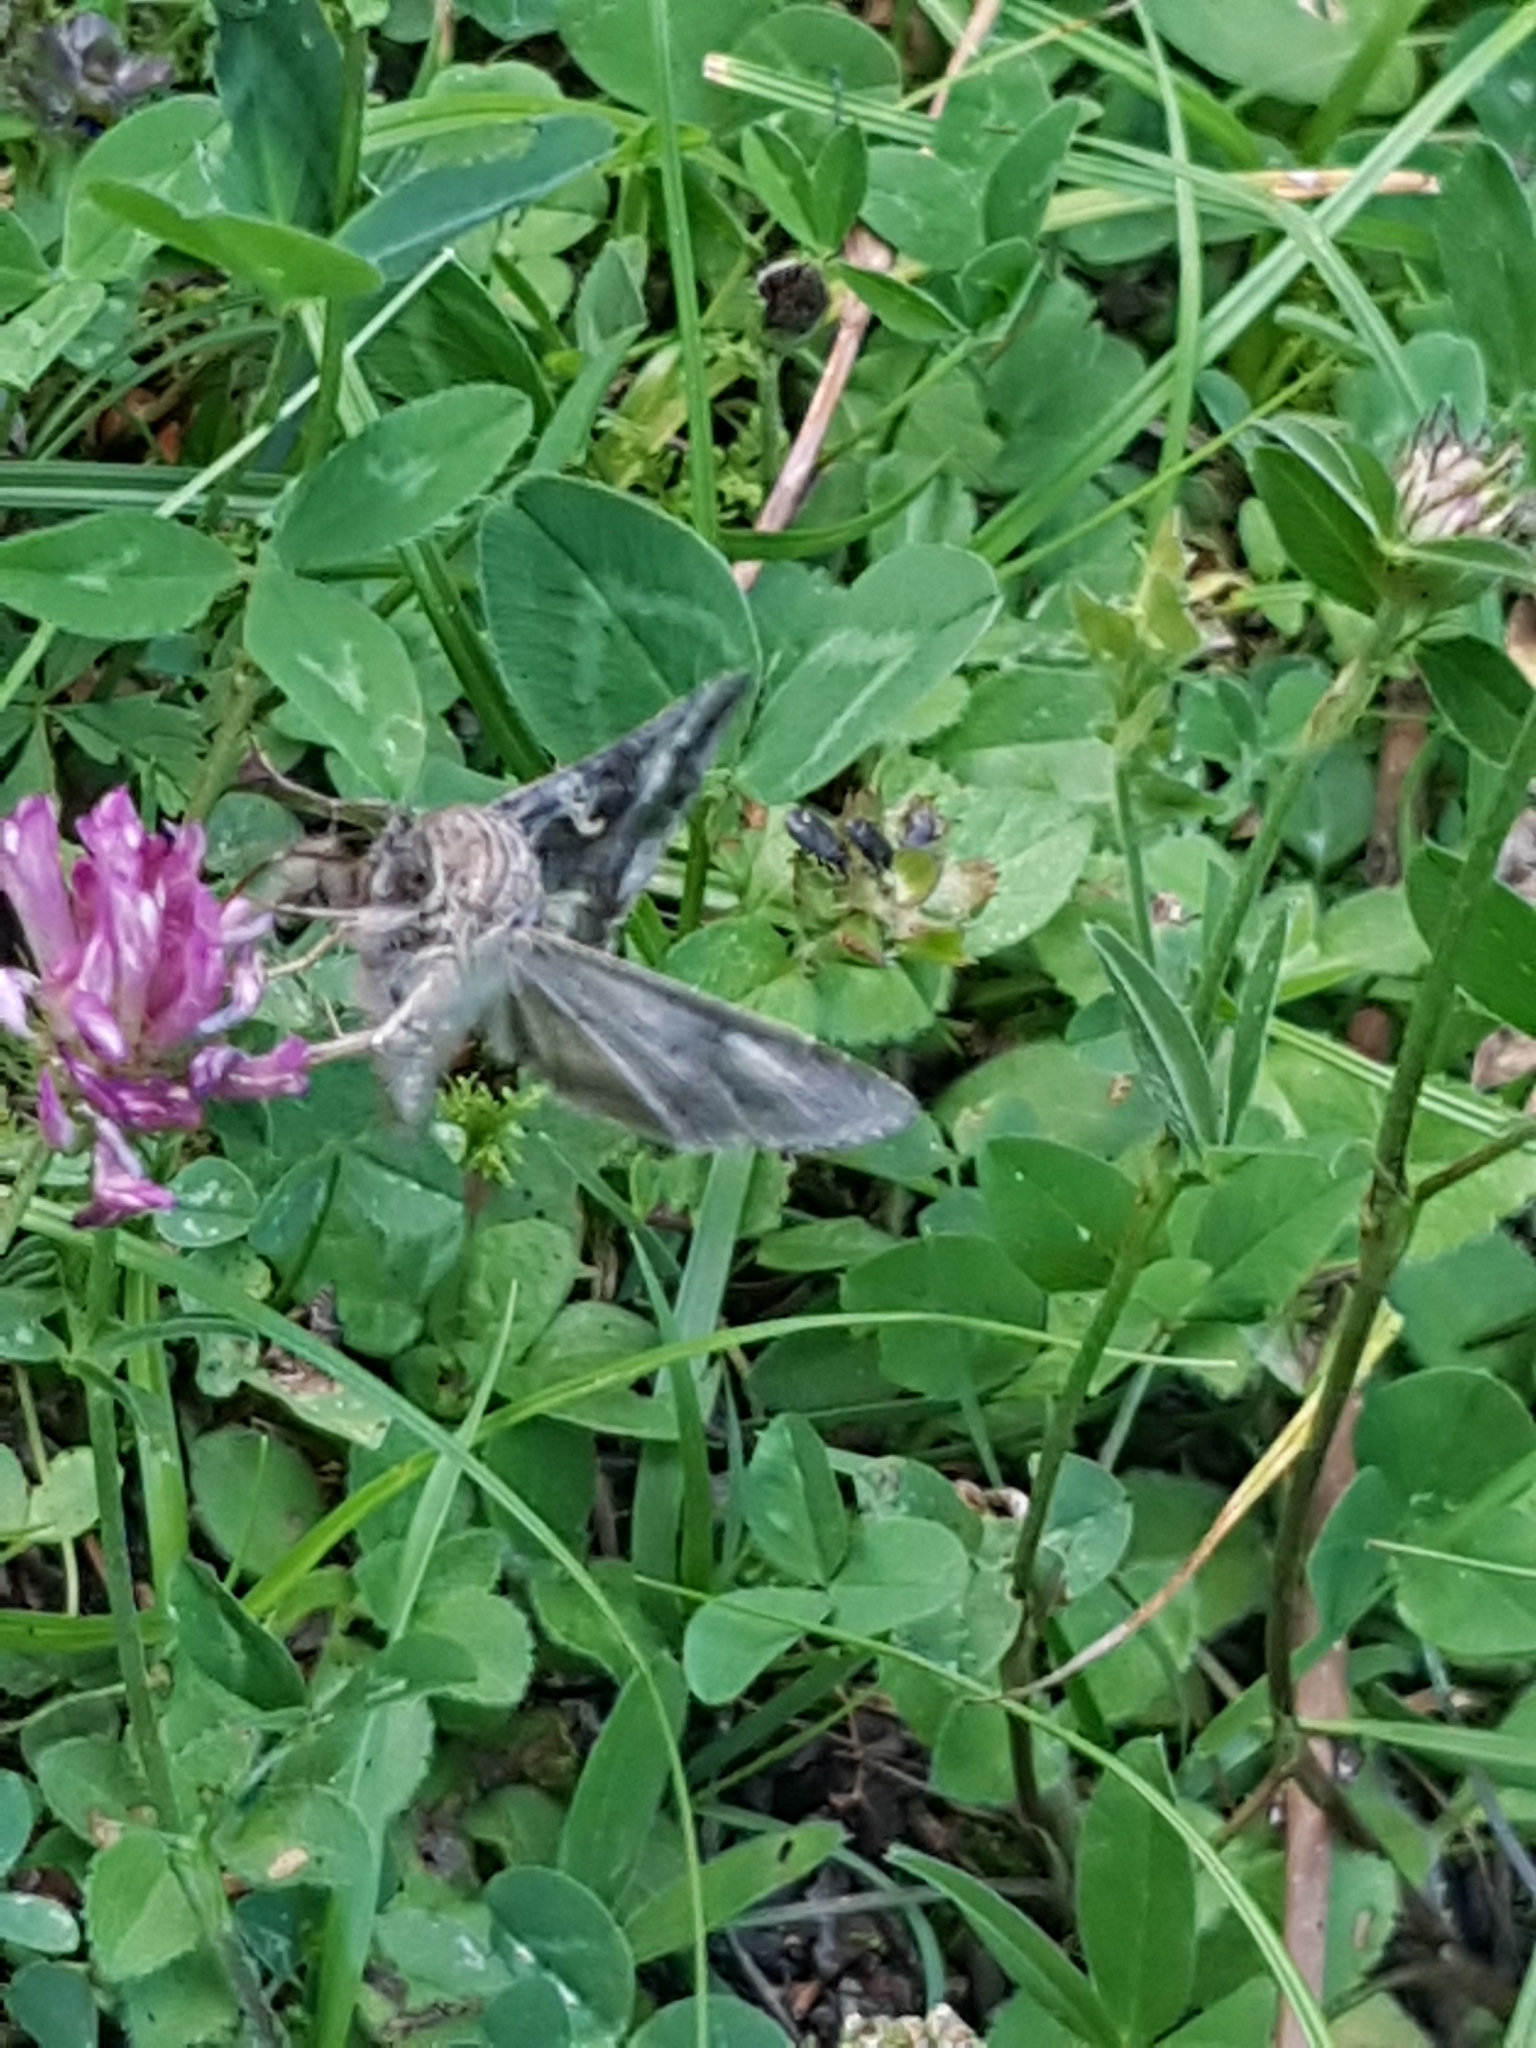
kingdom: Animalia
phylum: Arthropoda
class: Insecta
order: Lepidoptera
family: Noctuidae
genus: Autographa
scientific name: Autographa gamma
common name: Silver y
